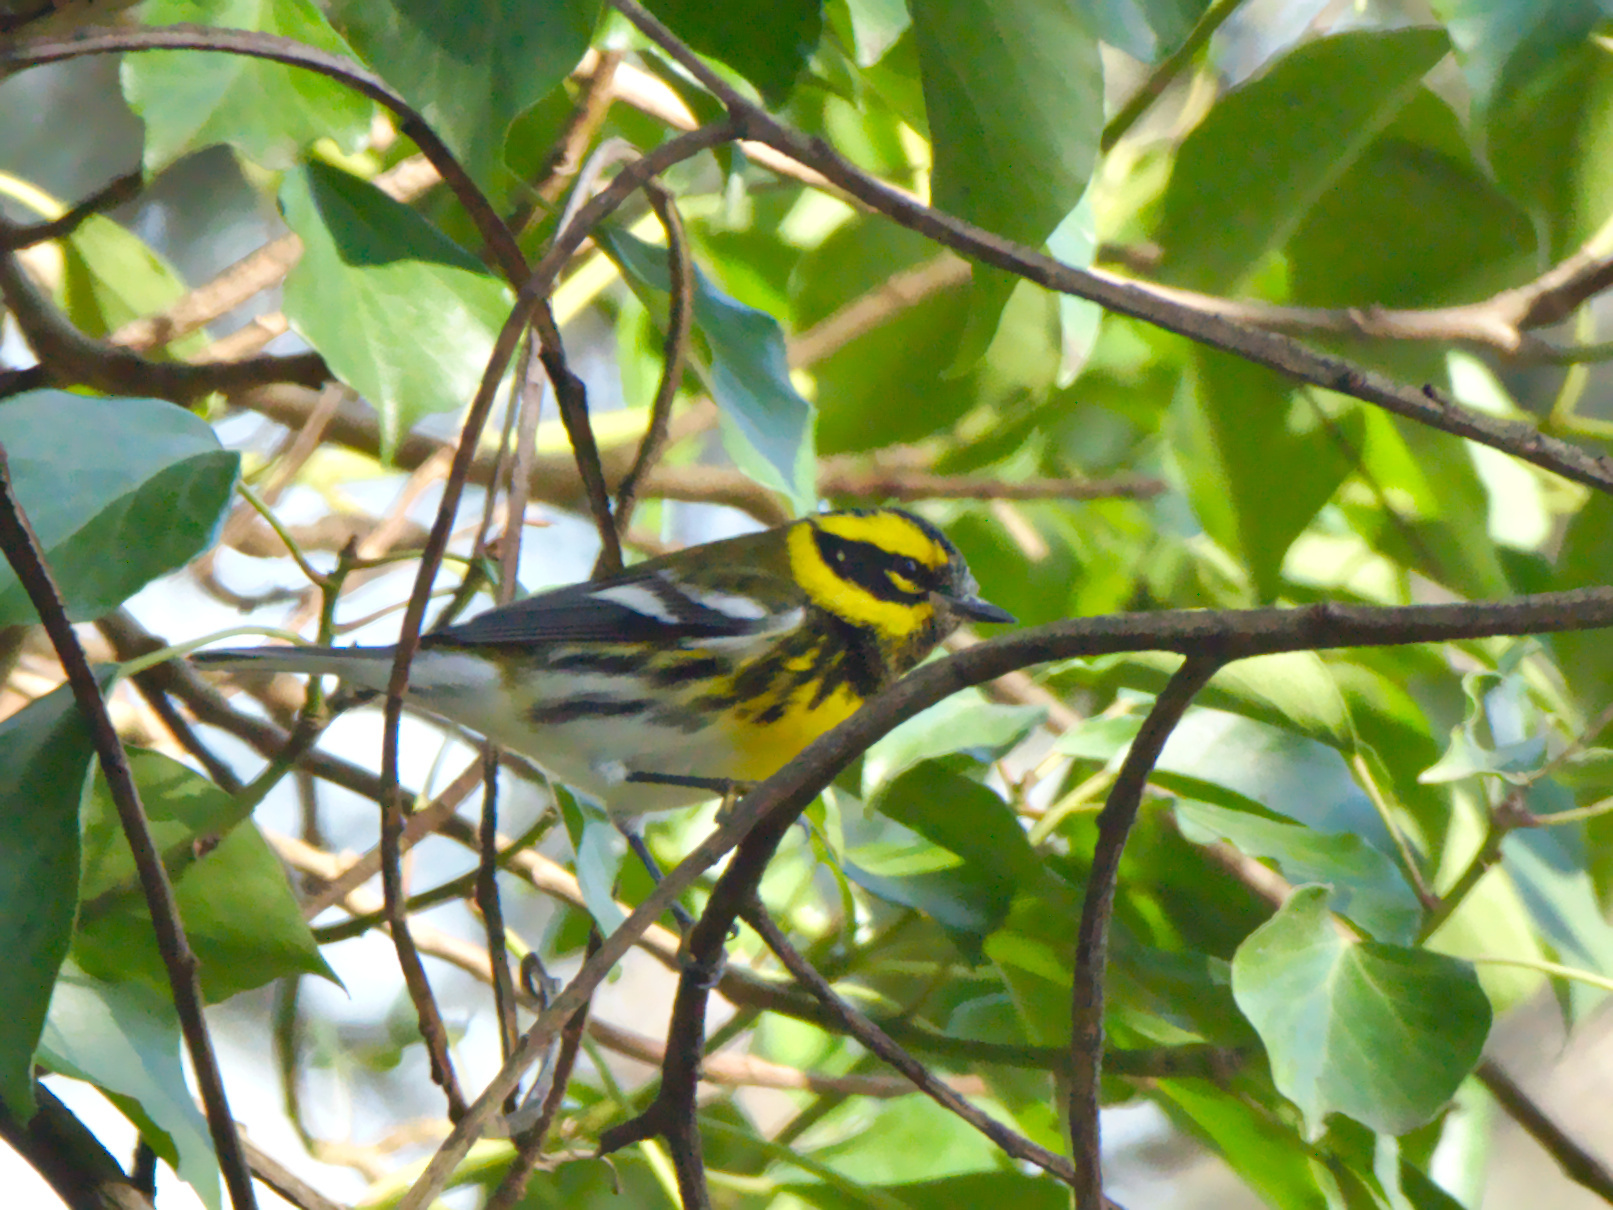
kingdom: Animalia
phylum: Chordata
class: Aves
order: Passeriformes
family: Parulidae
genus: Setophaga
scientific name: Setophaga townsendi
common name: Townsend's warbler
